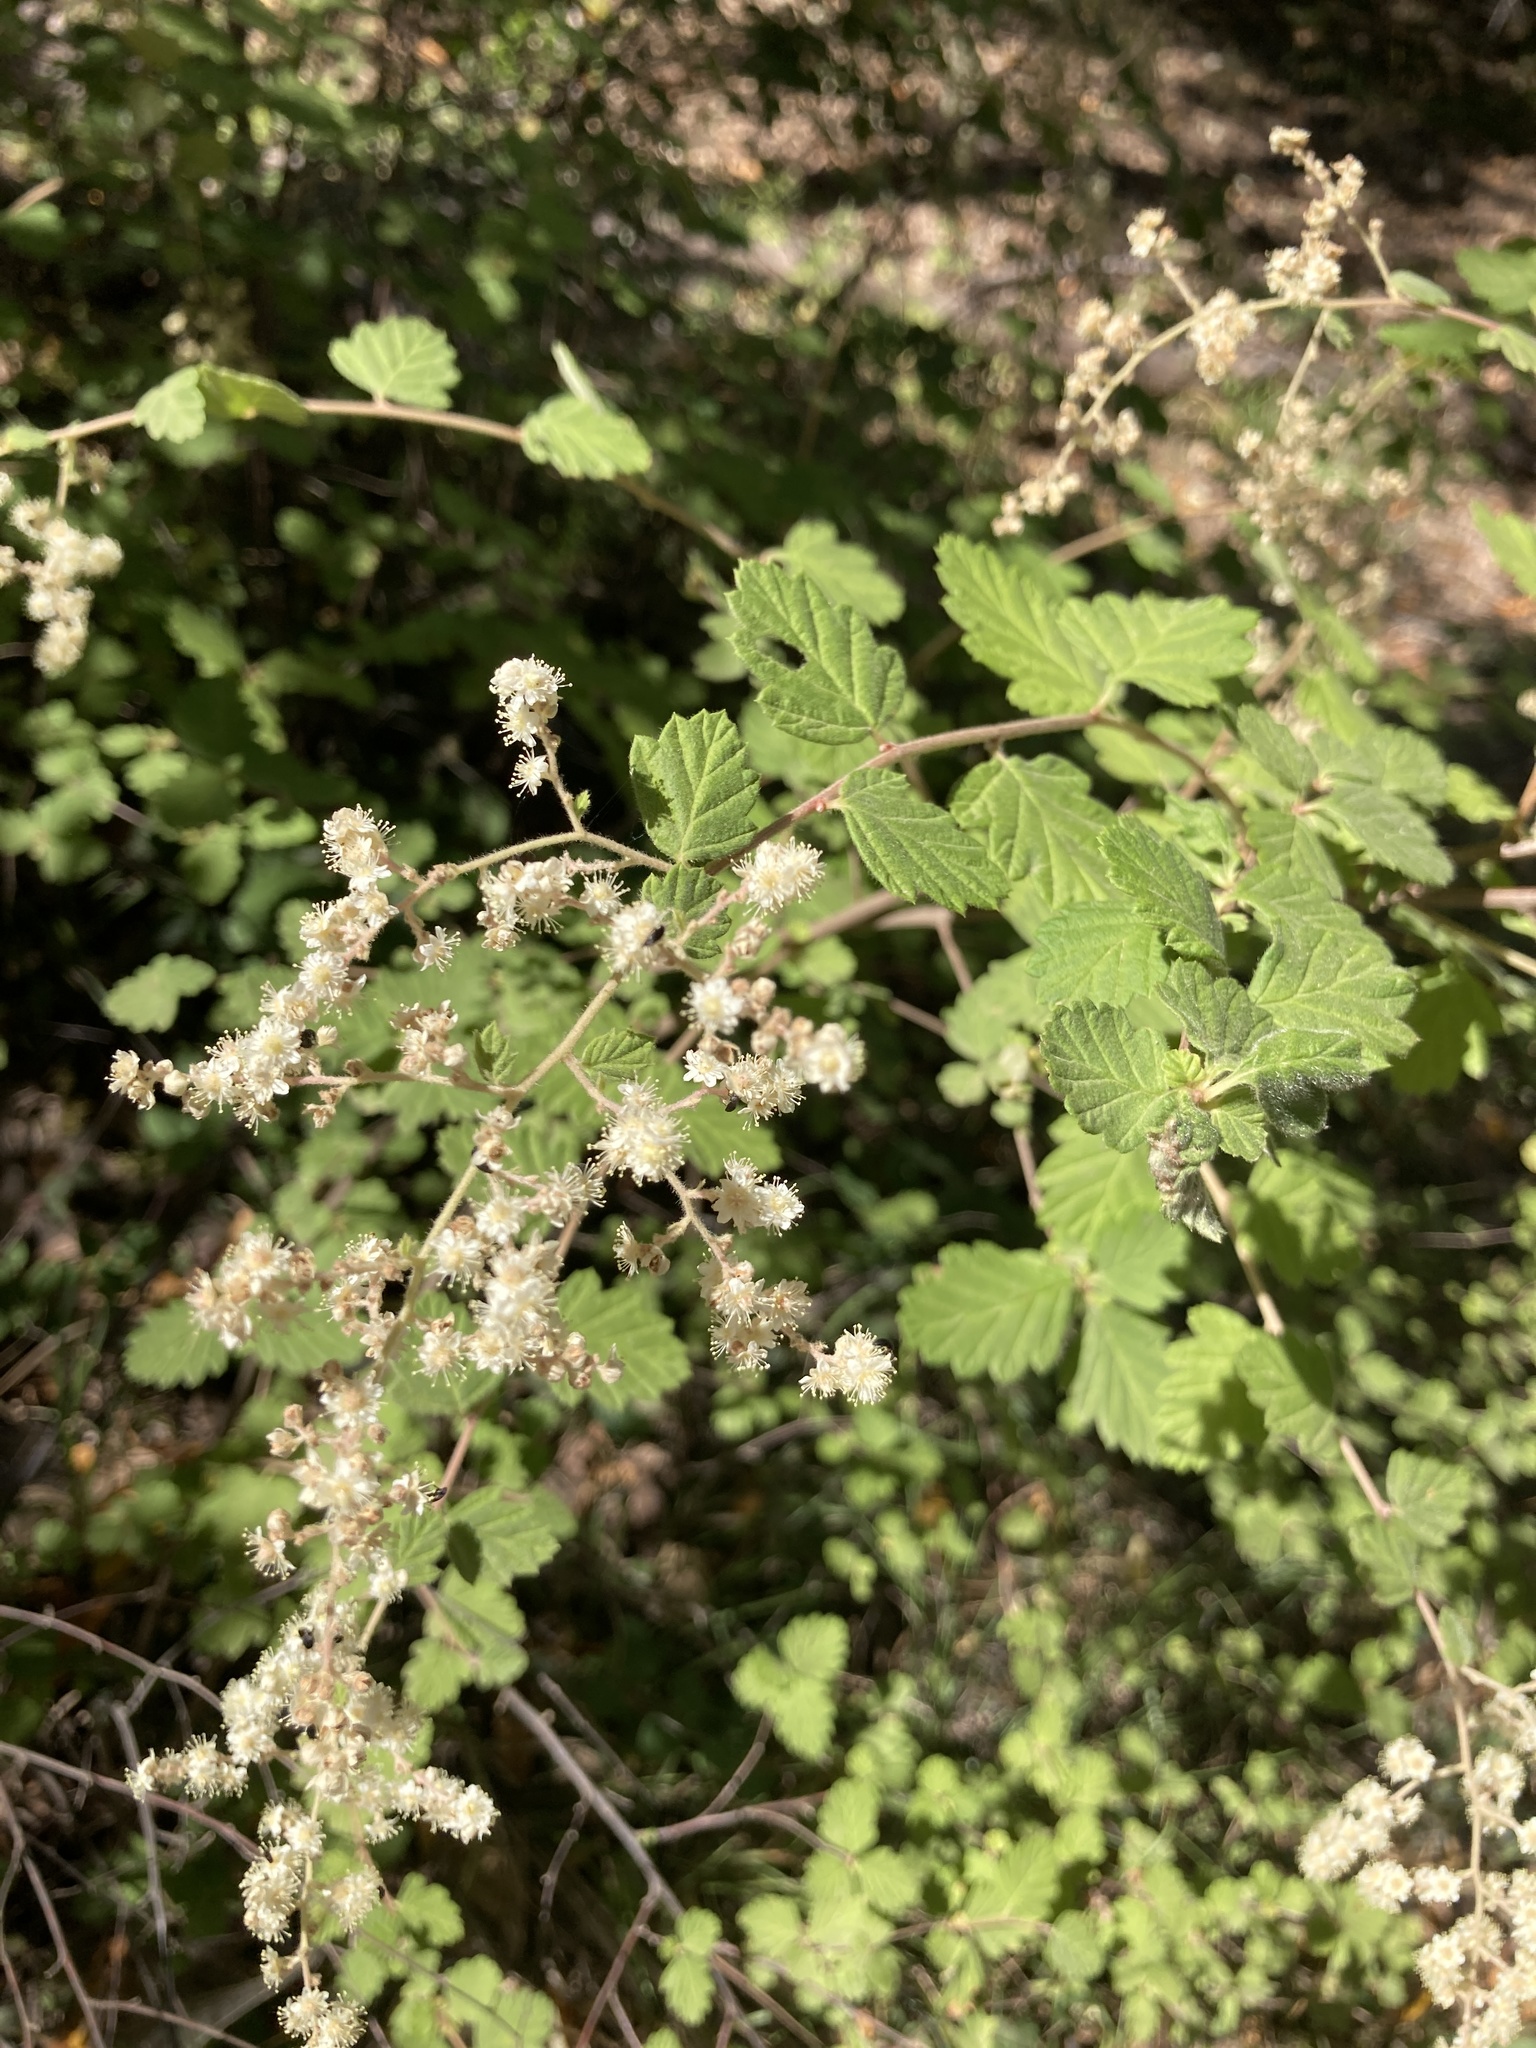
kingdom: Plantae
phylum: Tracheophyta
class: Magnoliopsida
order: Rosales
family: Rosaceae
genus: Holodiscus
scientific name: Holodiscus discolor
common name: Oceanspray
